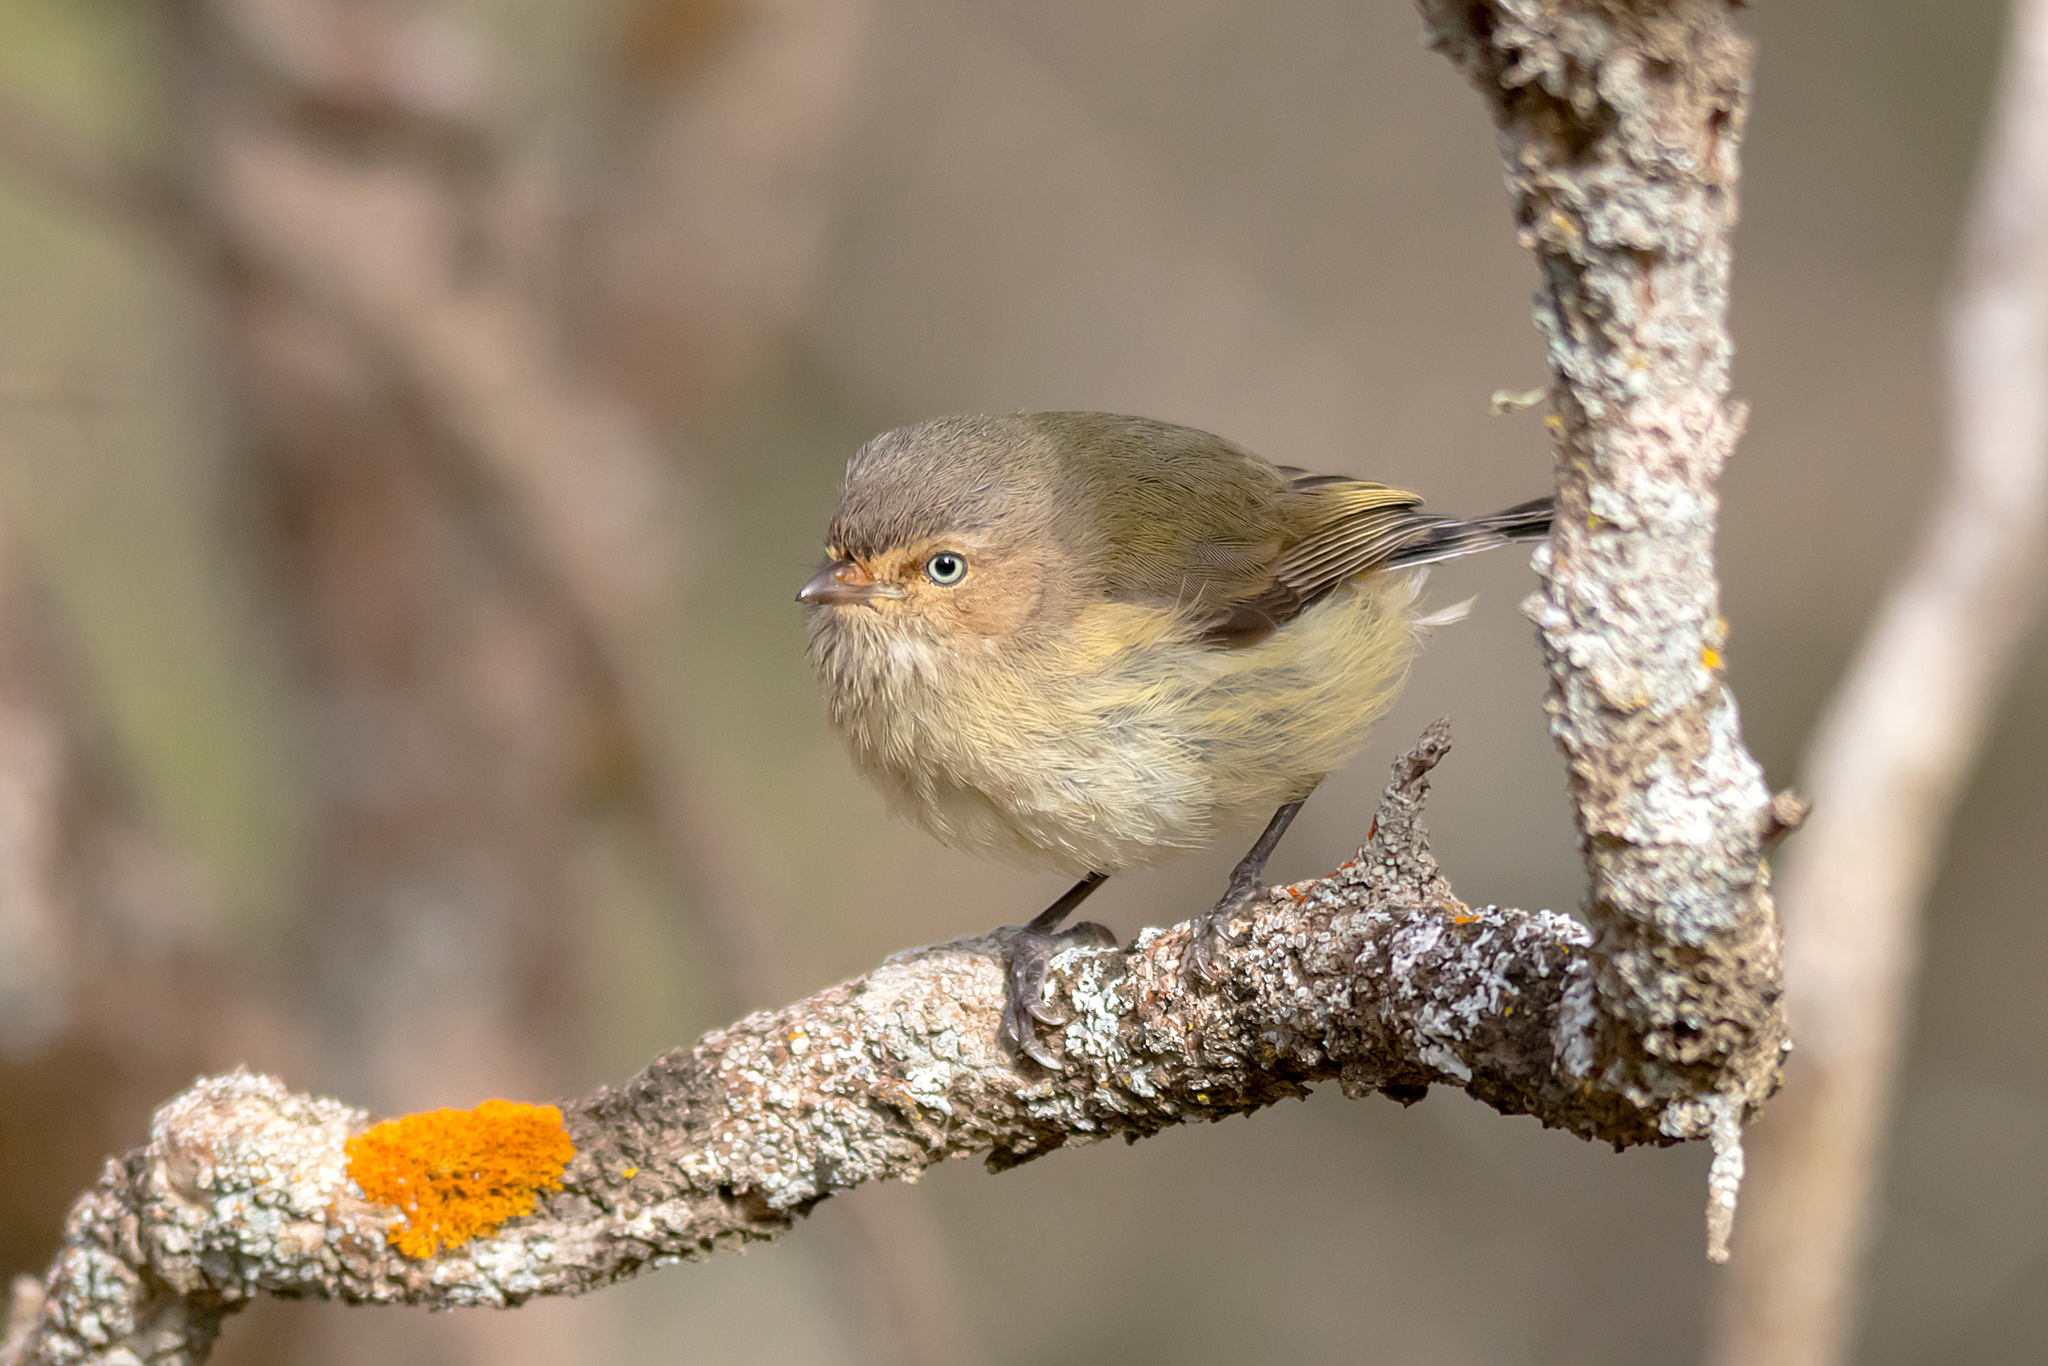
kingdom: Animalia
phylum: Chordata
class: Aves
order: Passeriformes
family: Acanthizidae
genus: Smicrornis
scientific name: Smicrornis brevirostris
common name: Weebill
